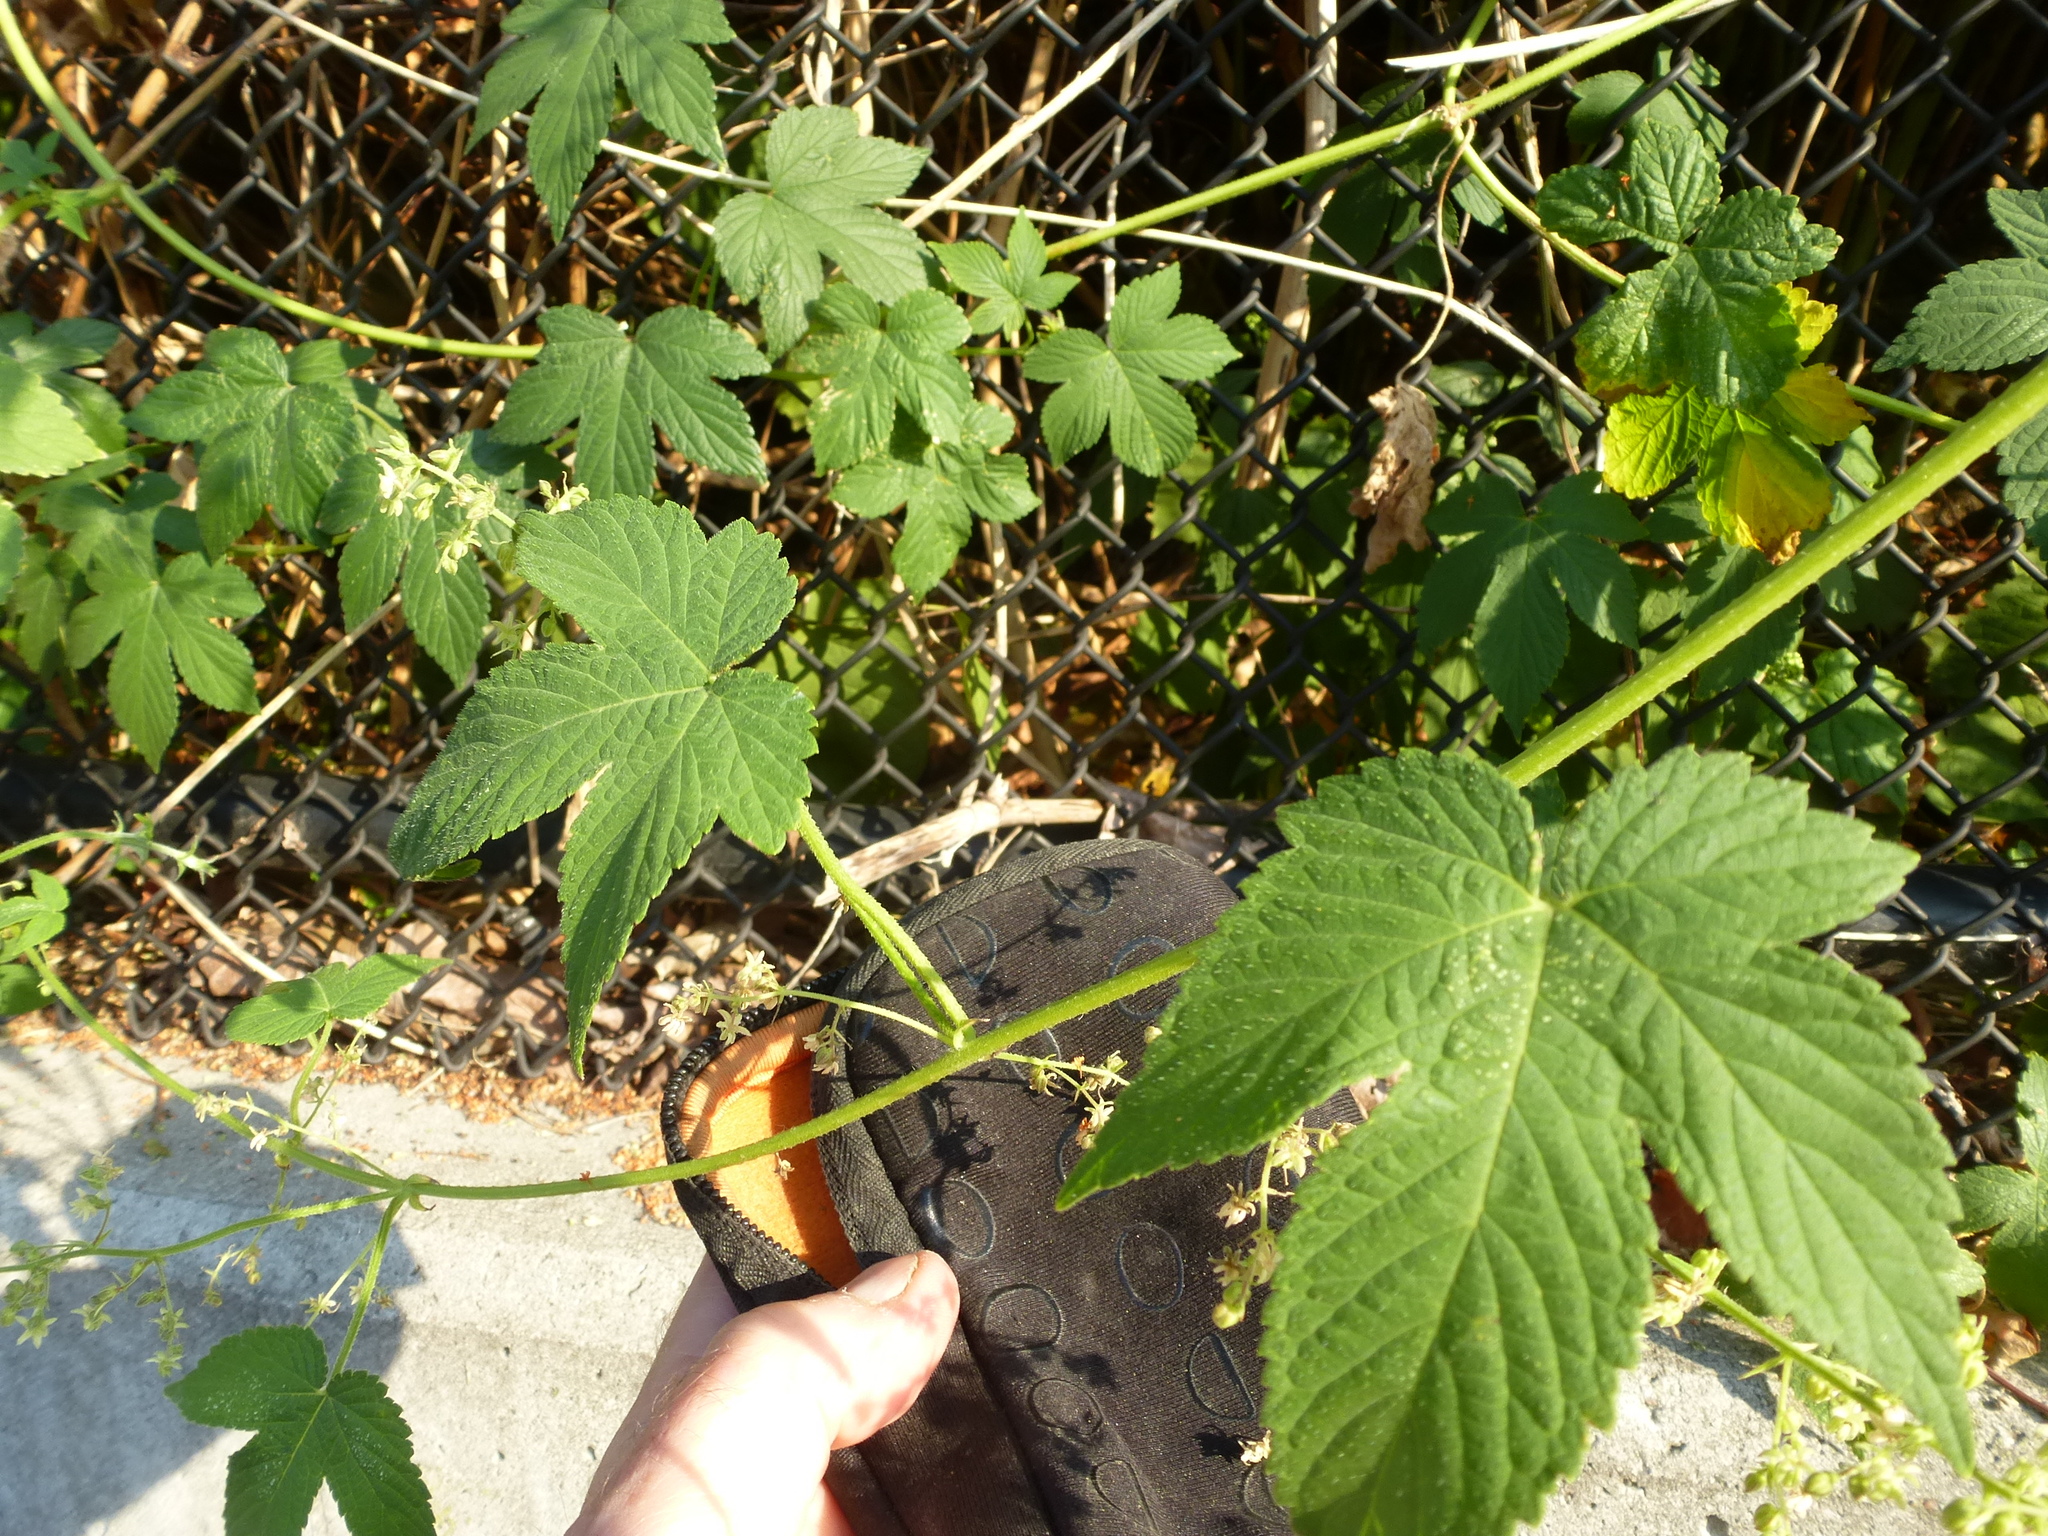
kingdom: Plantae
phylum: Tracheophyta
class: Magnoliopsida
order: Rosales
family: Cannabaceae
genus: Humulus
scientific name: Humulus scandens
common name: Japanese hop
